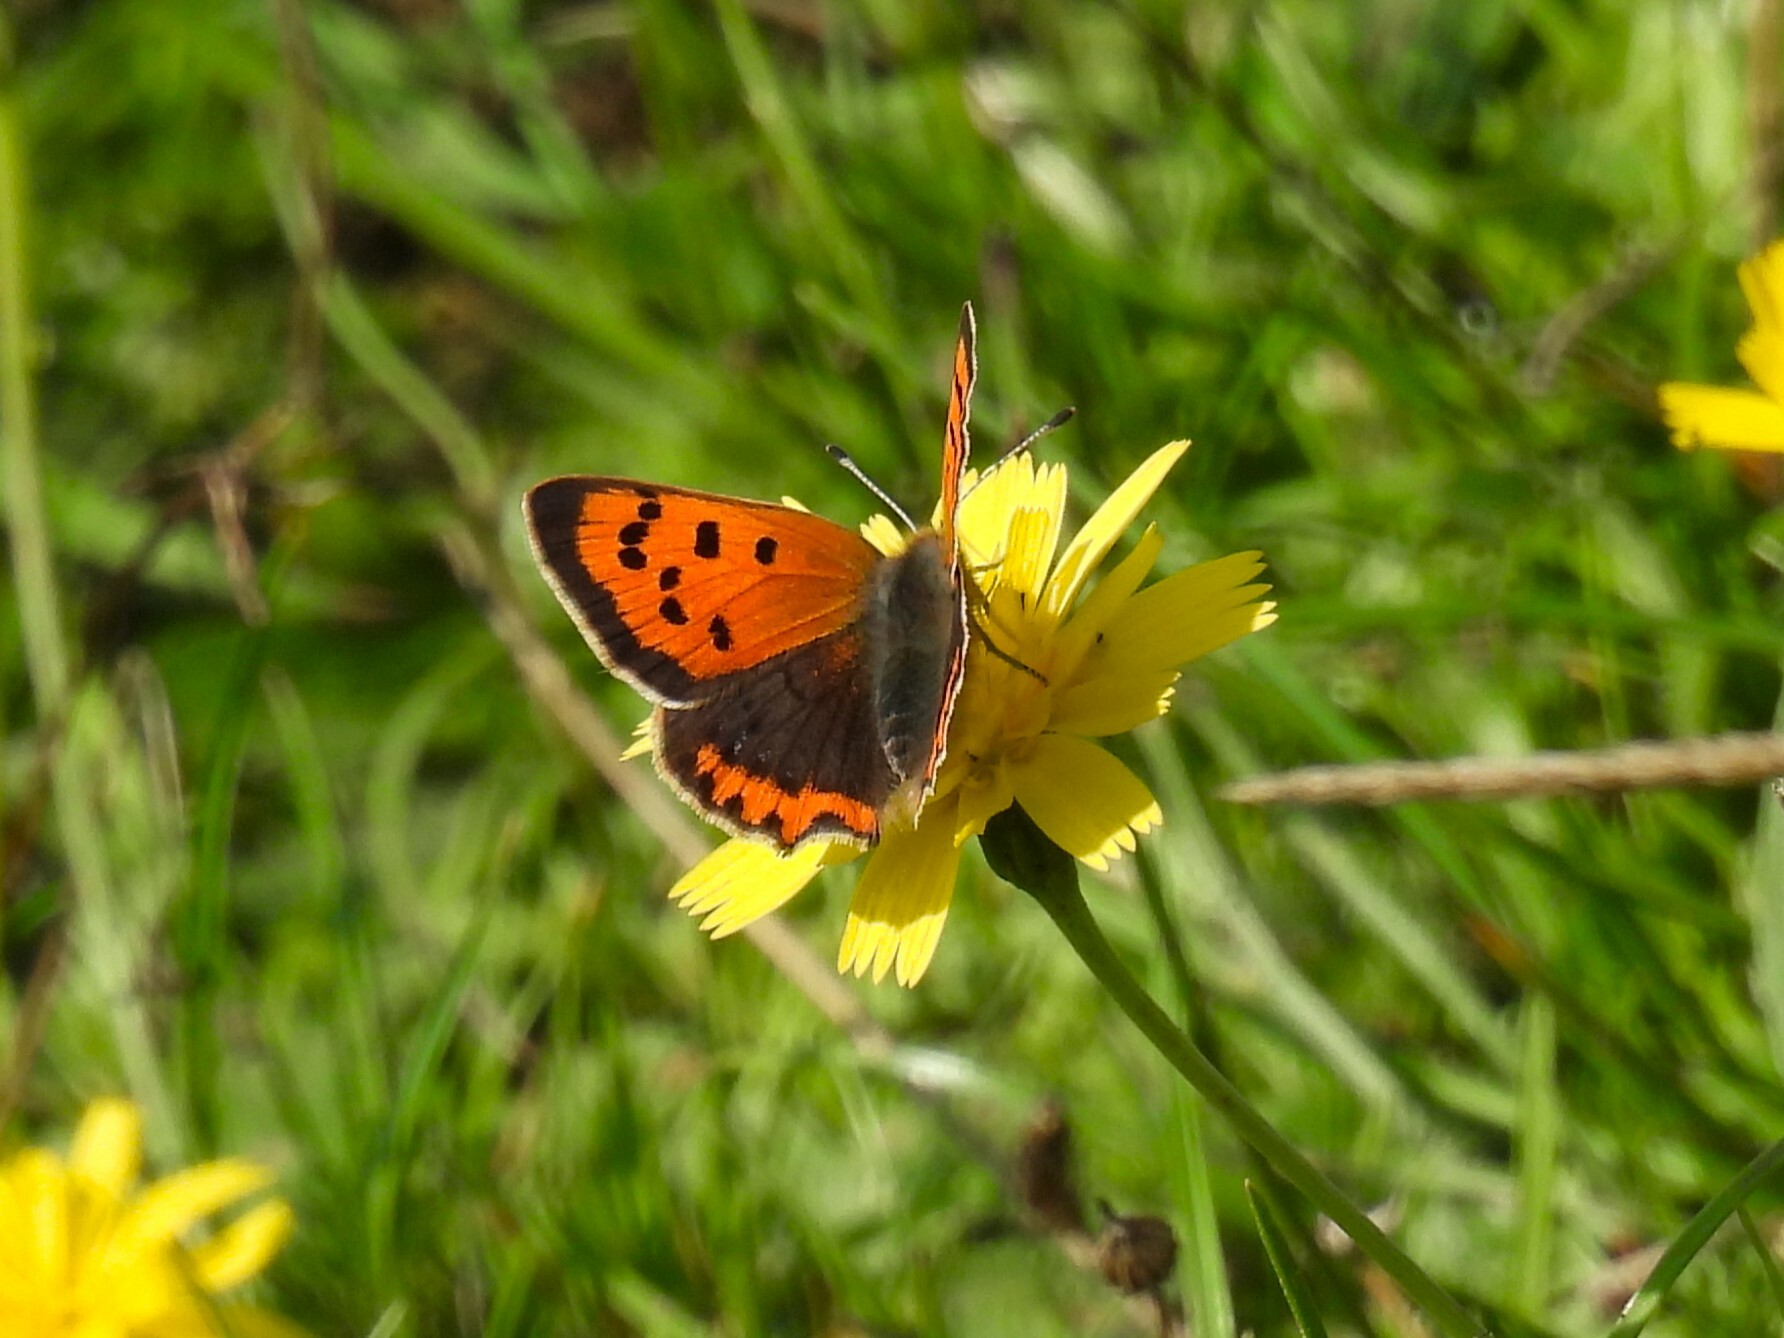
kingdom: Animalia
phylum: Arthropoda
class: Insecta
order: Lepidoptera
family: Lycaenidae
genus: Lycaena
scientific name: Lycaena phlaeas
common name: Small copper
